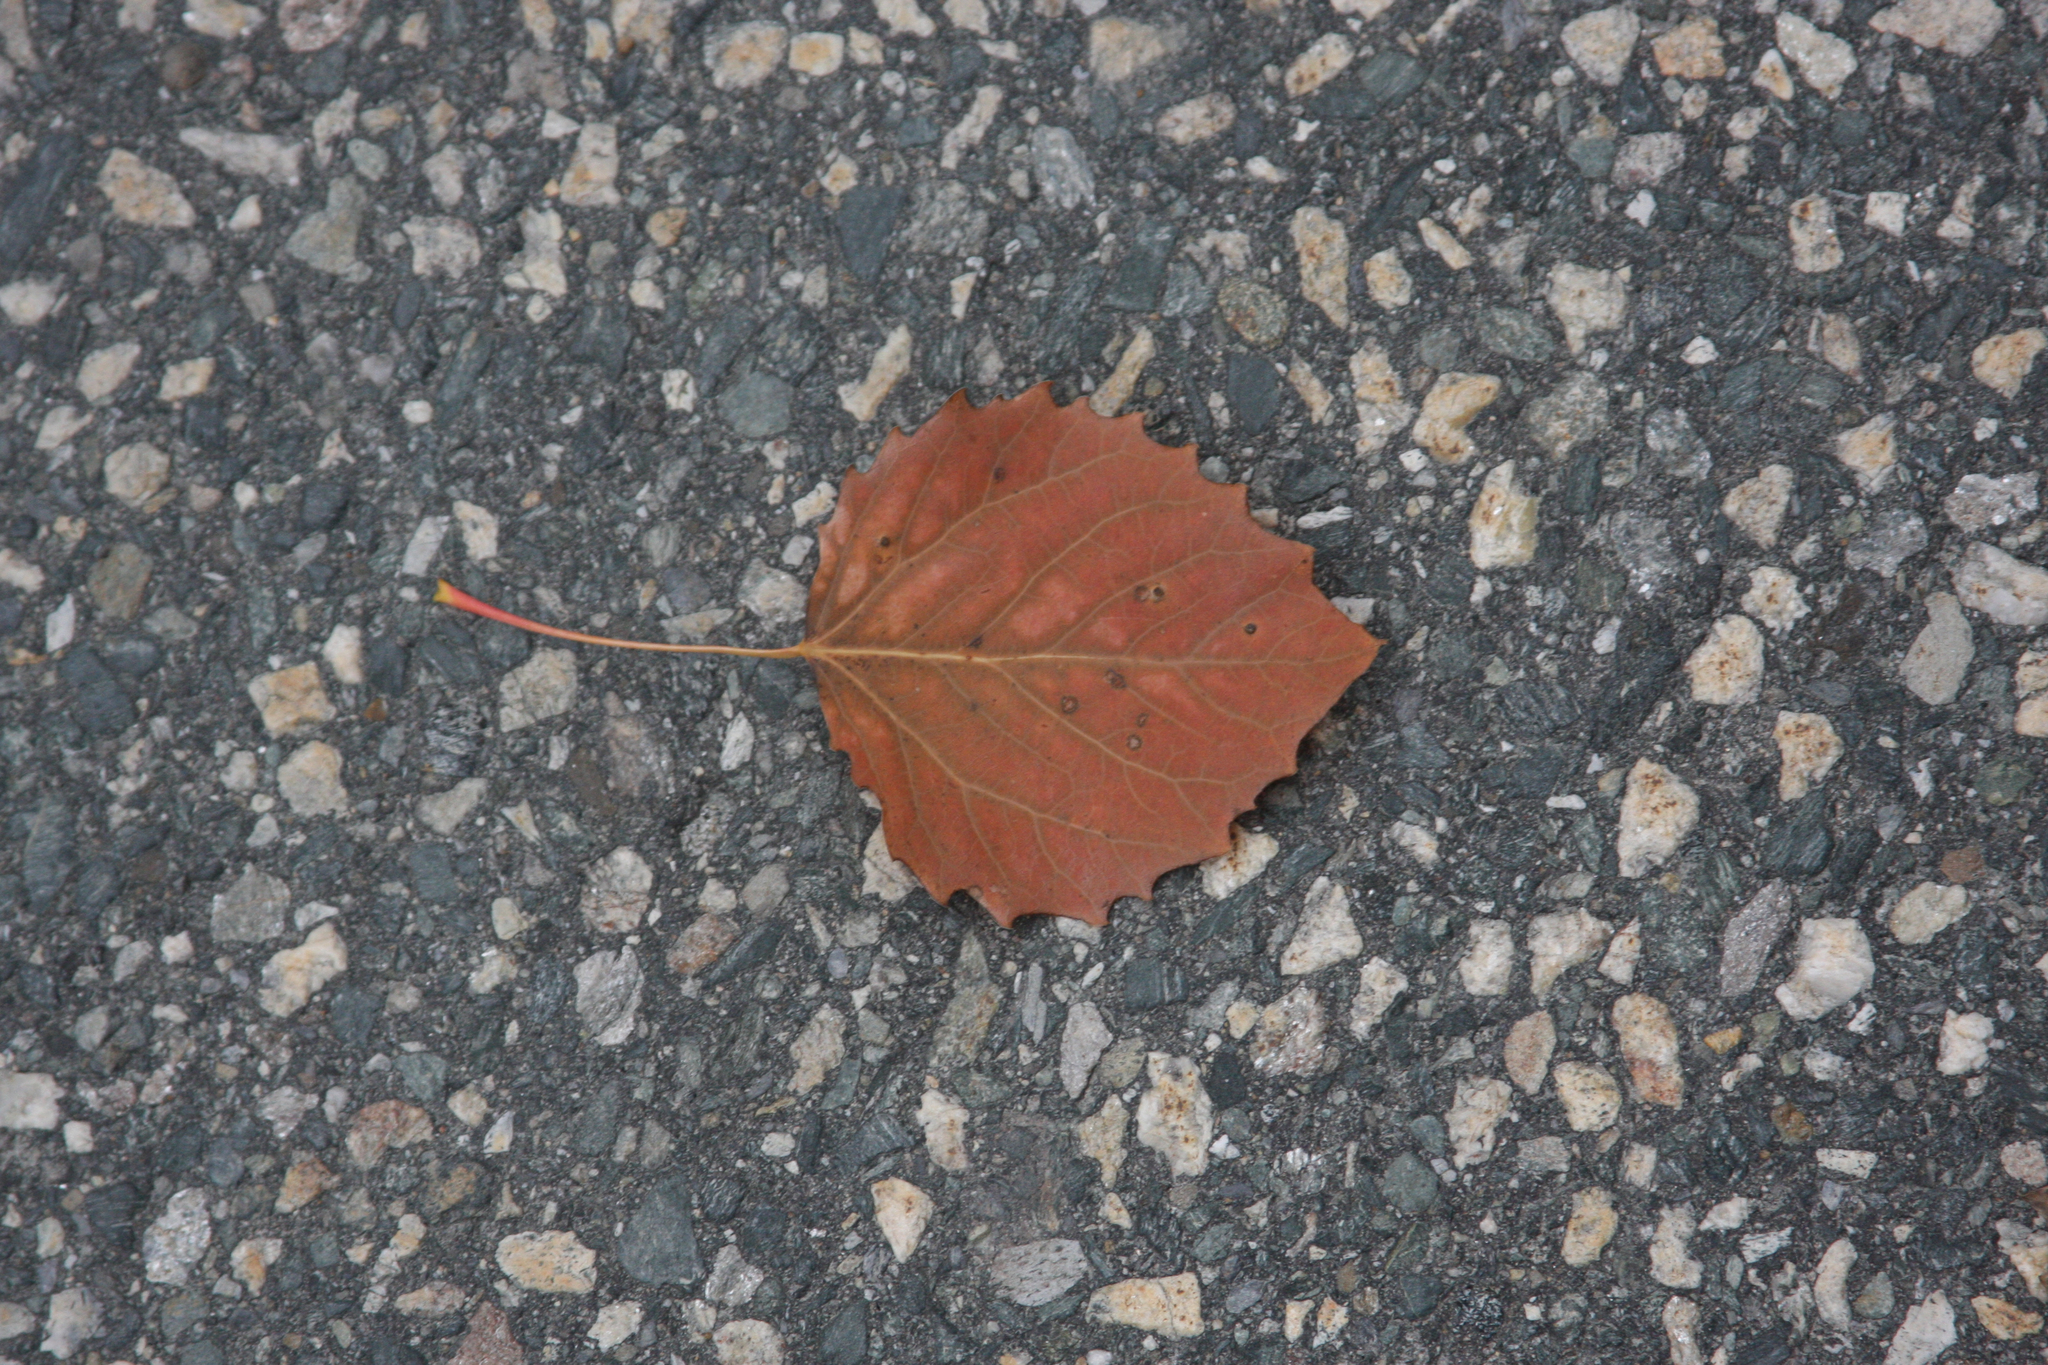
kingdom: Plantae
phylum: Tracheophyta
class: Magnoliopsida
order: Malpighiales
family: Salicaceae
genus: Populus
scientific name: Populus grandidentata
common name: Bigtooth aspen
